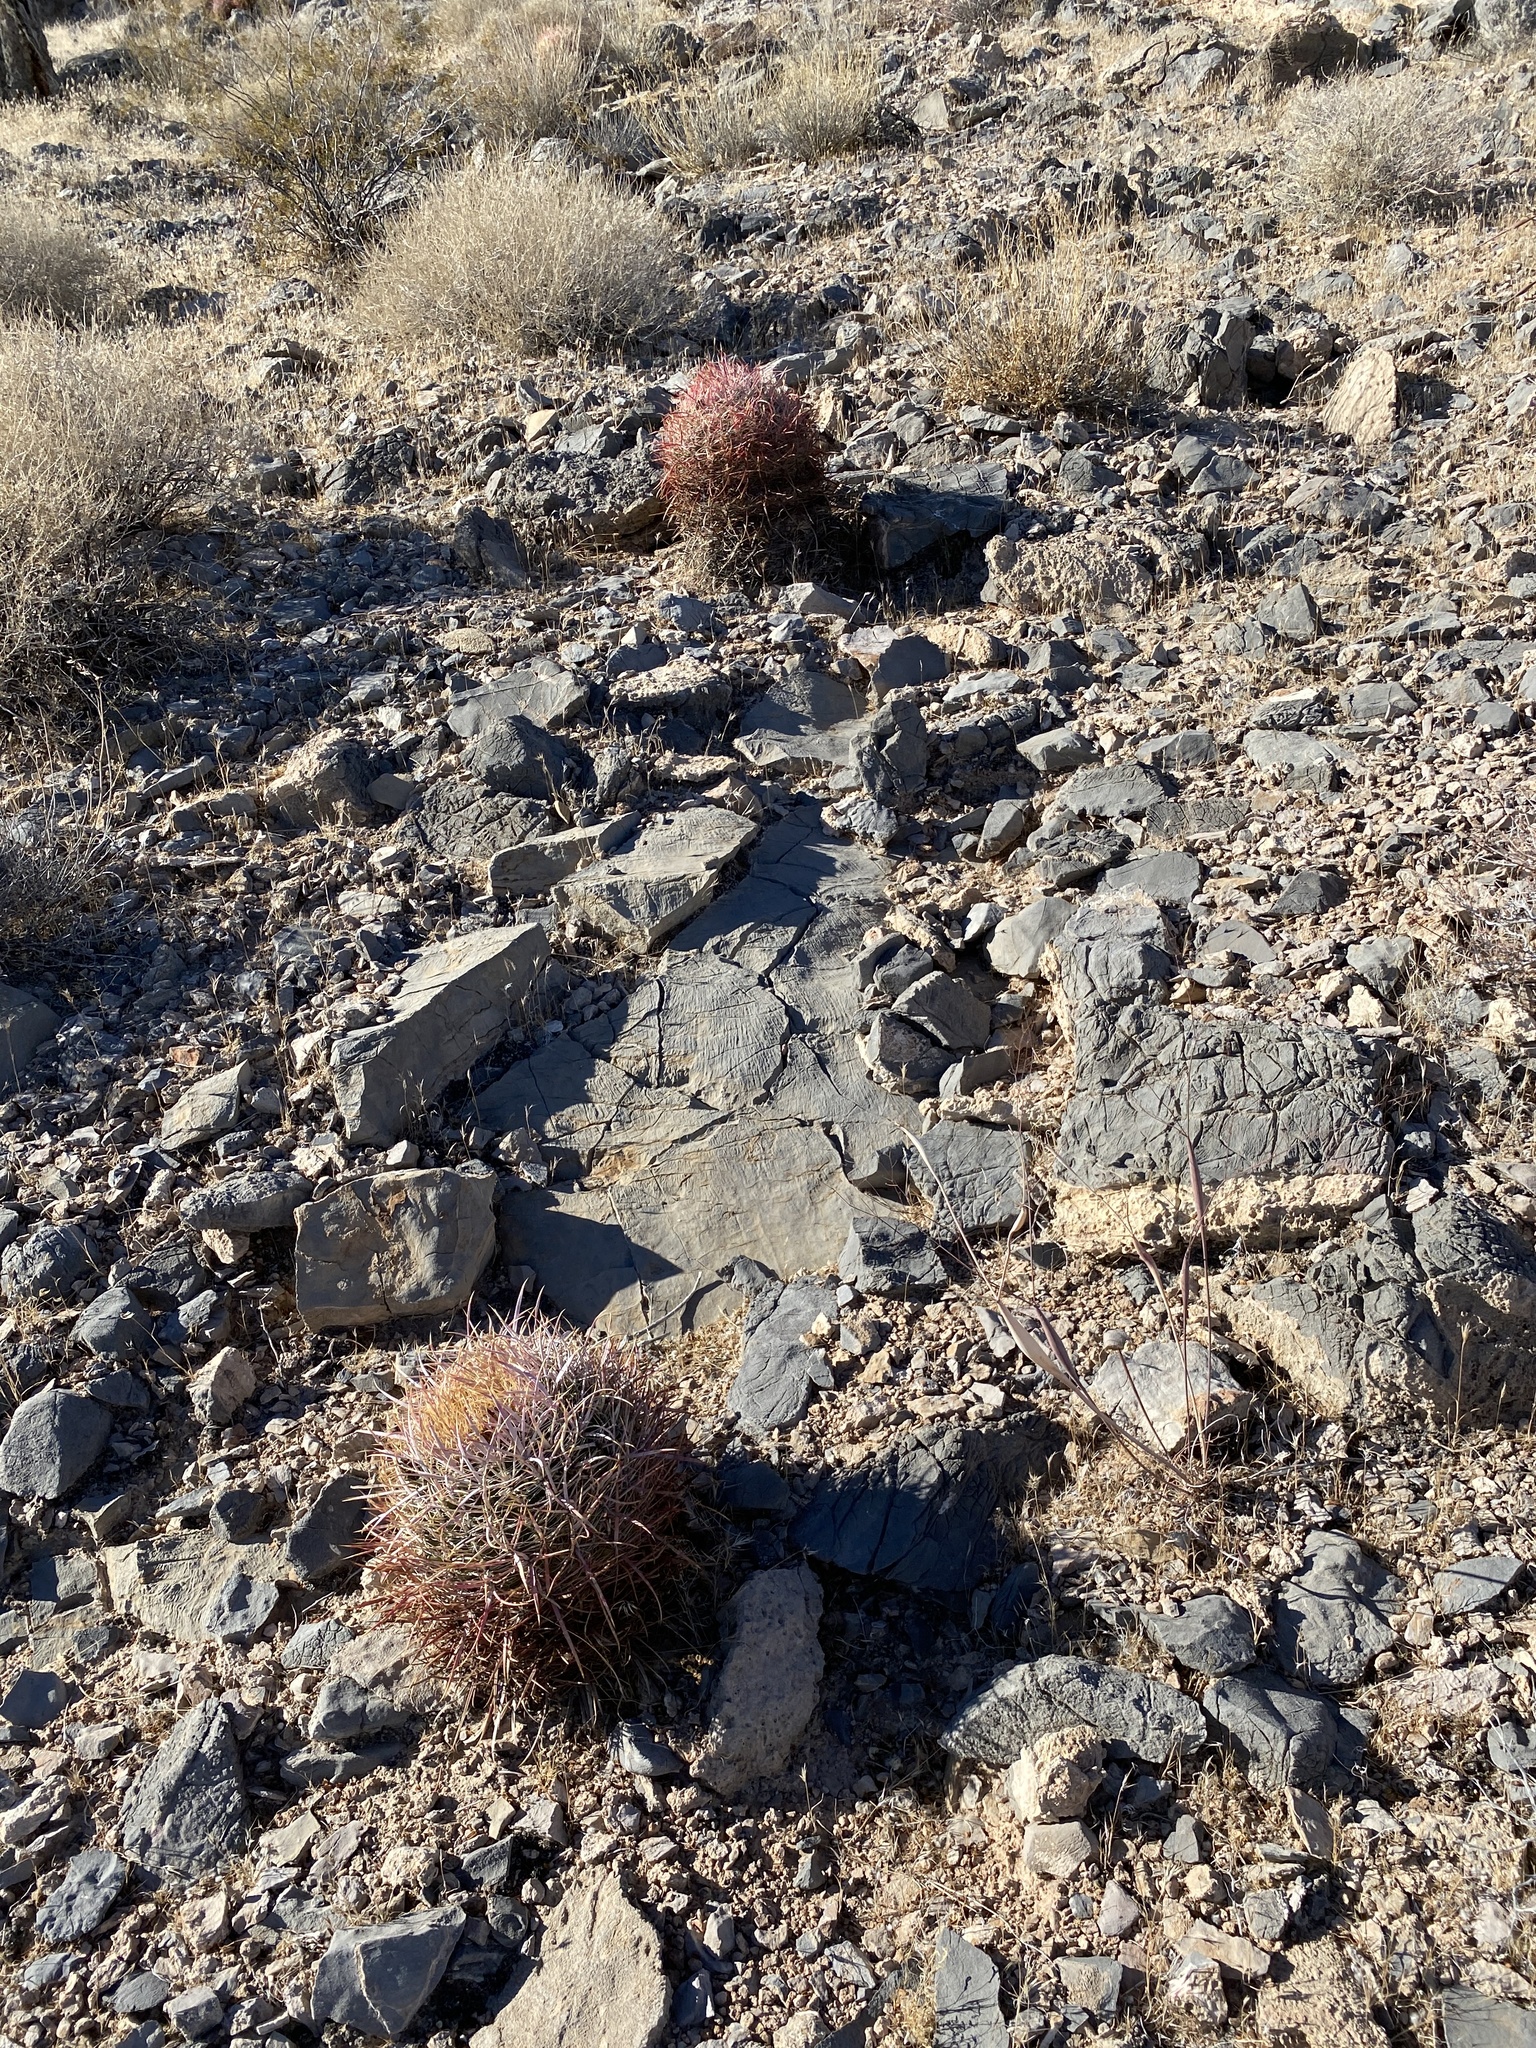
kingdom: Plantae
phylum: Tracheophyta
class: Magnoliopsida
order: Caryophyllales
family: Cactaceae
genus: Ferocactus
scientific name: Ferocactus cylindraceus
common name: California barrel cactus
